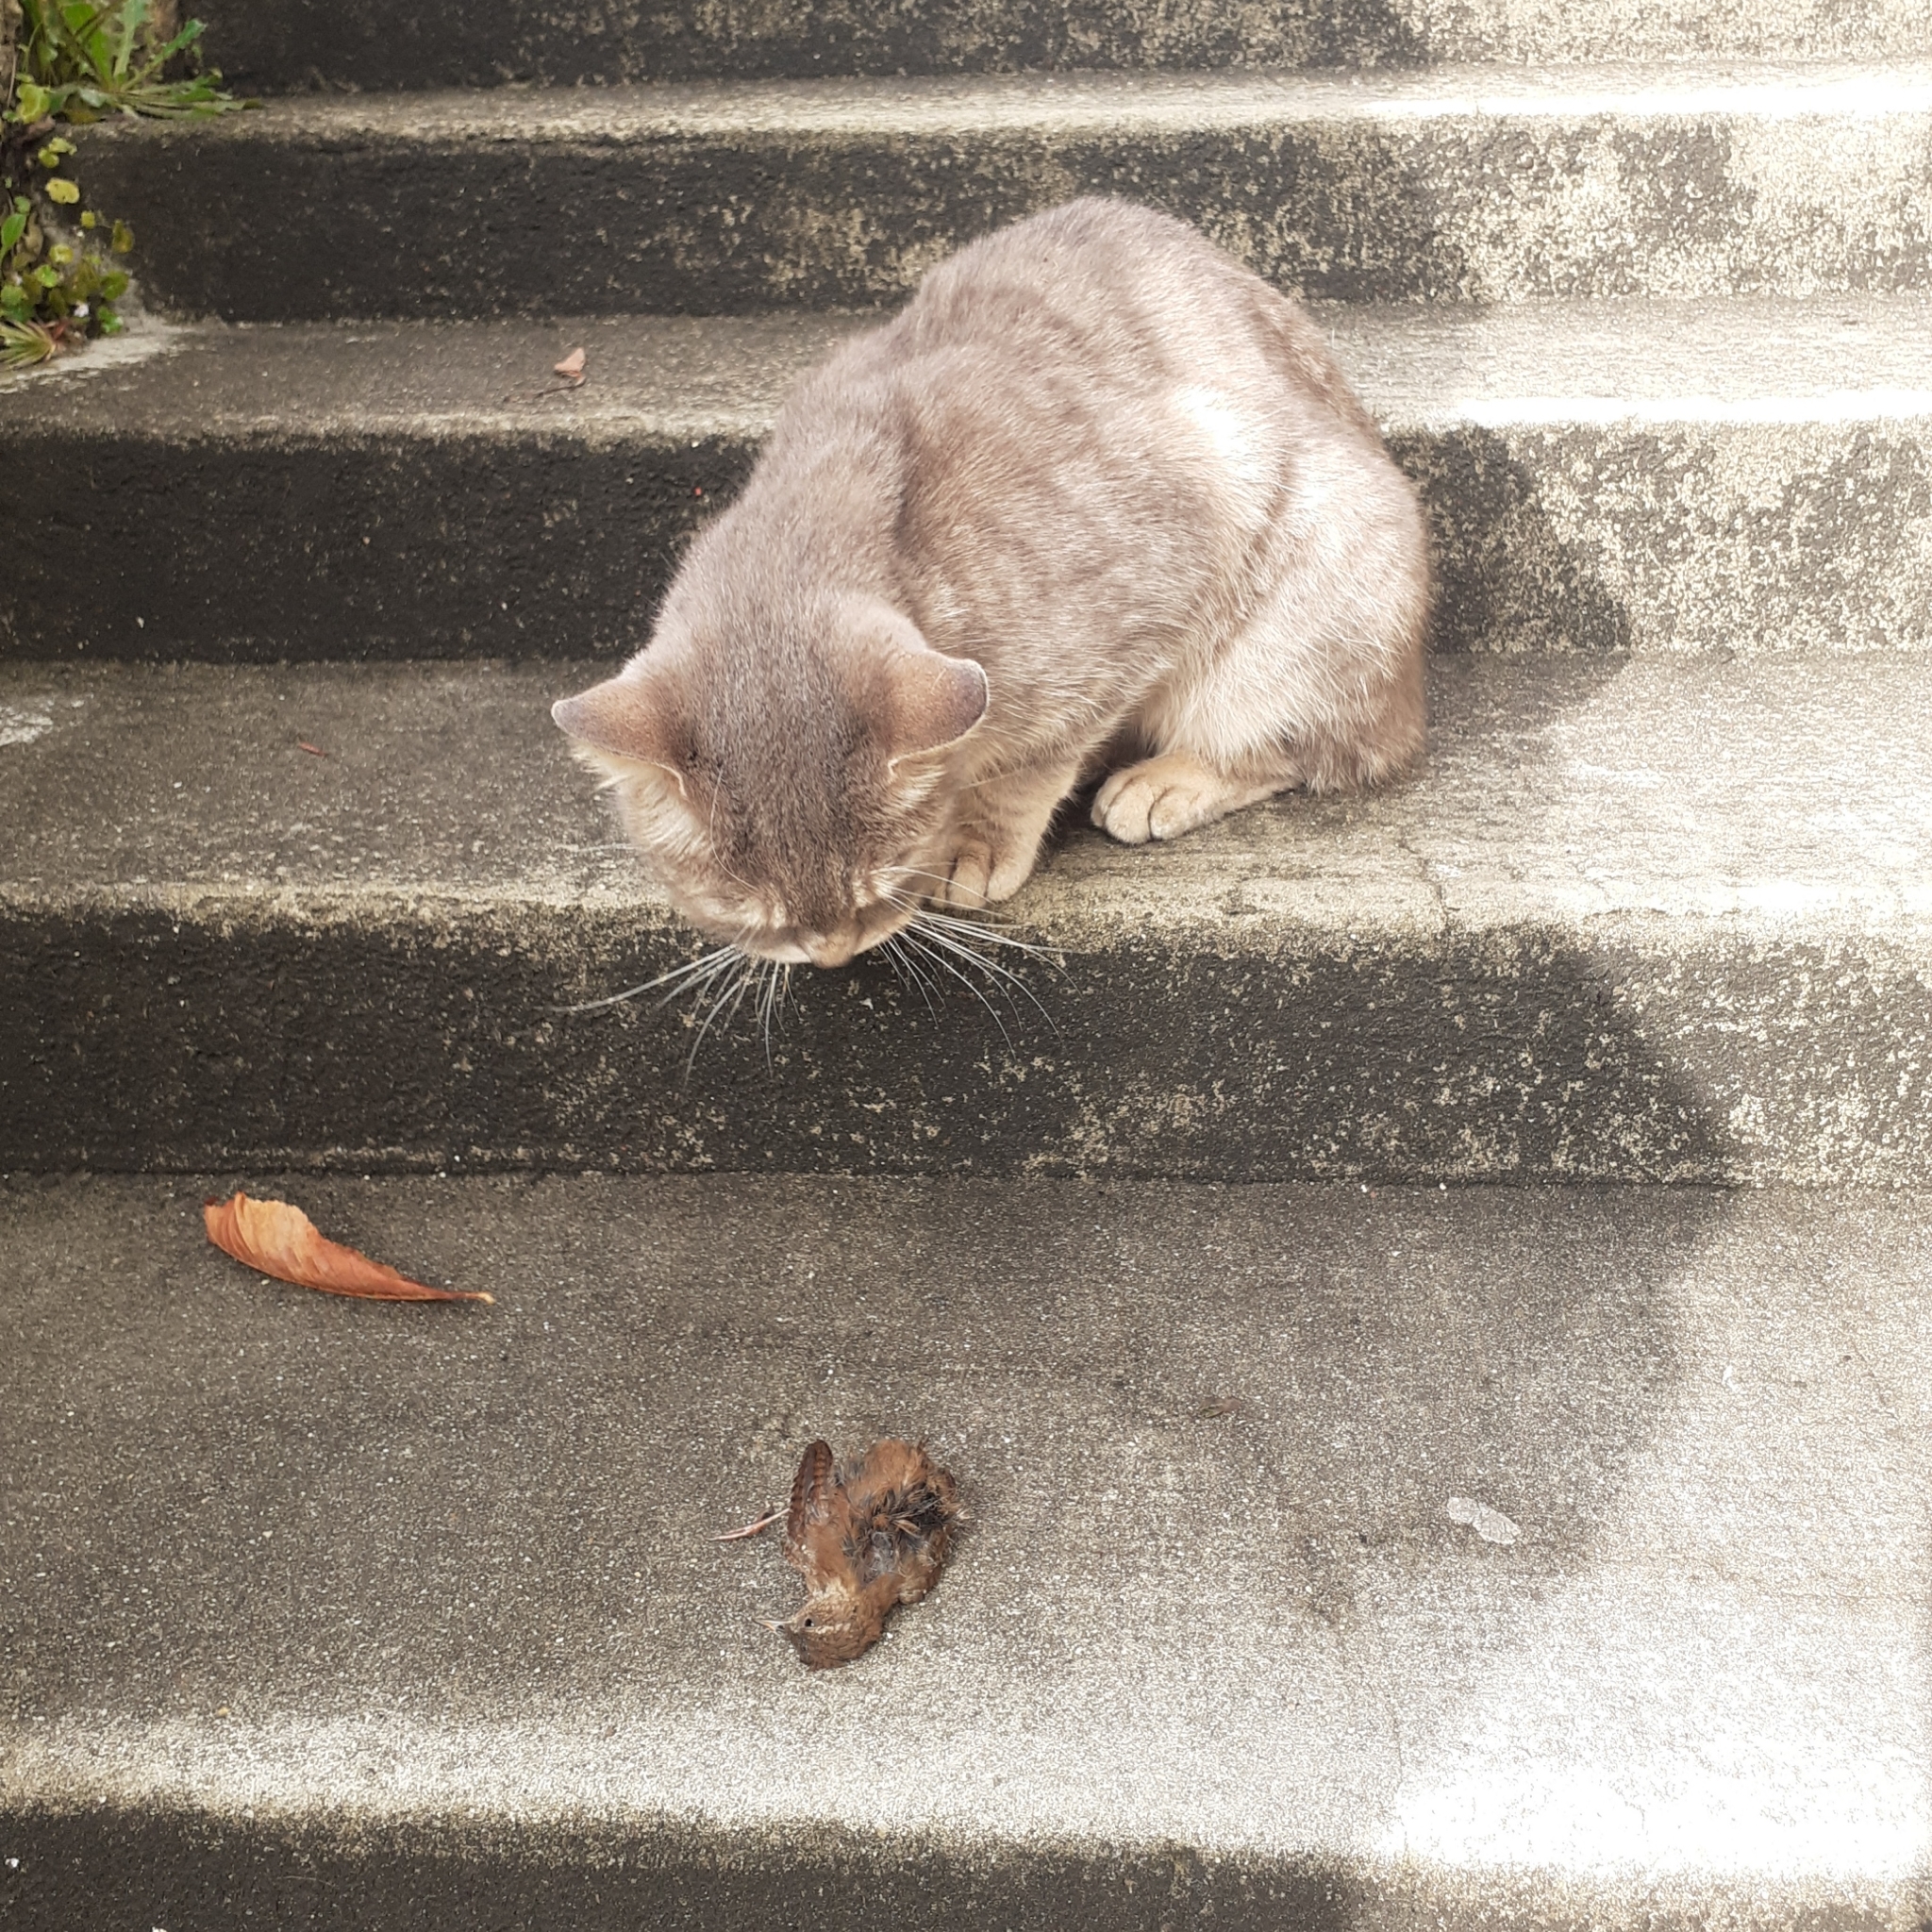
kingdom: Animalia
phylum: Chordata
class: Aves
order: Passeriformes
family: Troglodytidae
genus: Troglodytes
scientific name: Troglodytes troglodytes
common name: Eurasian wren
